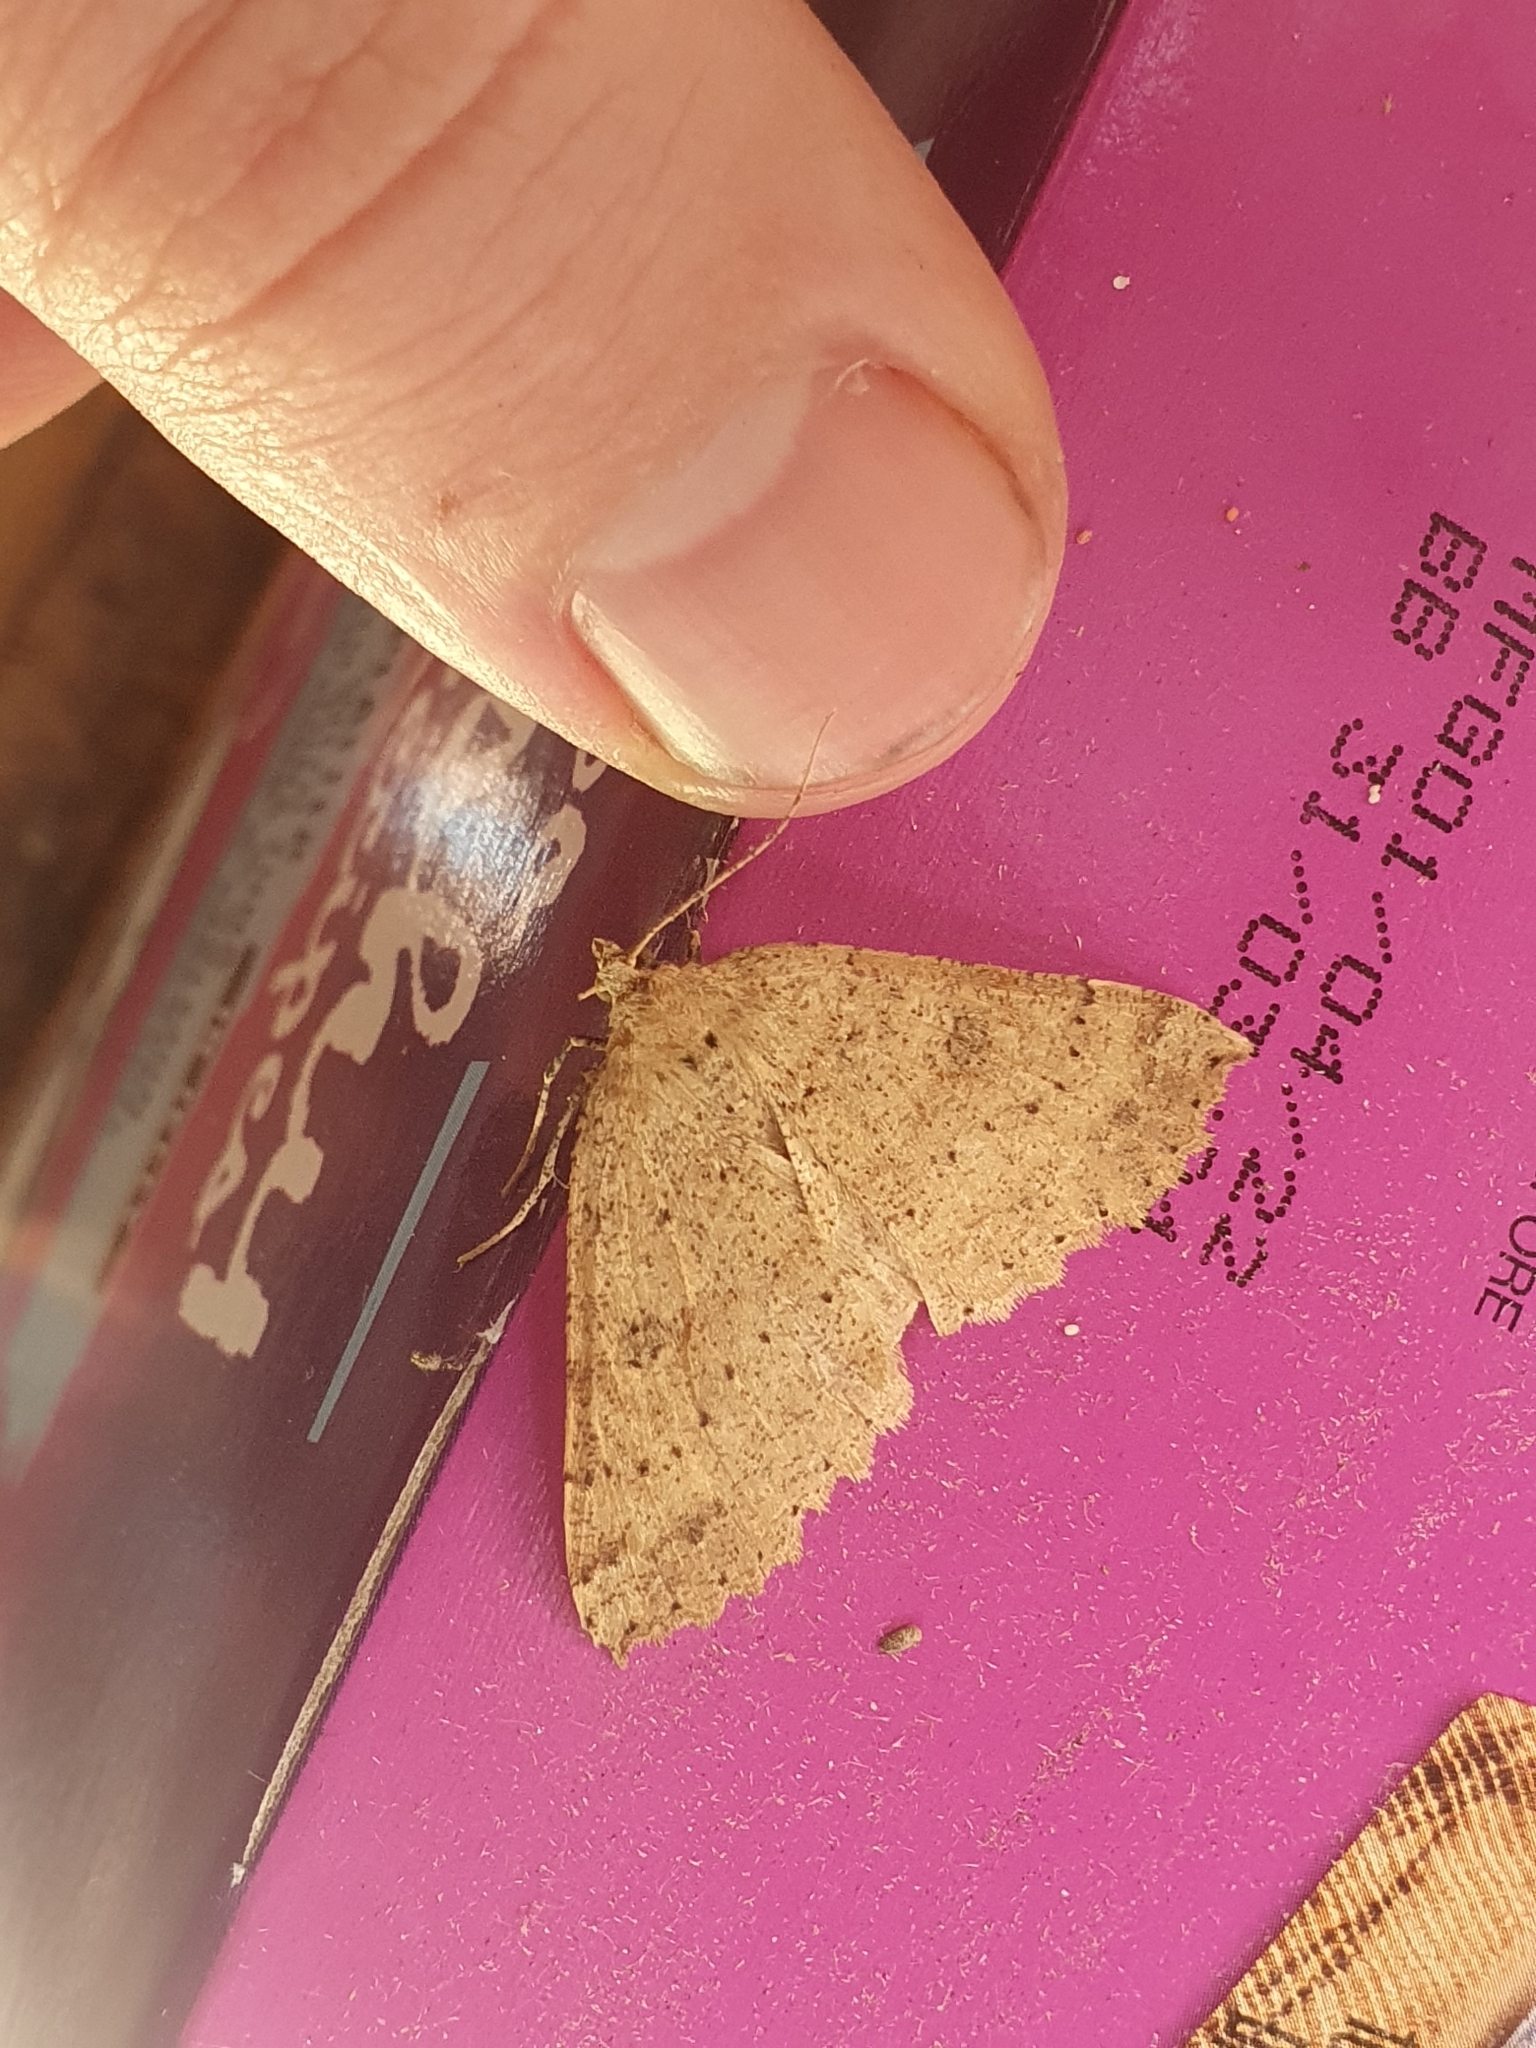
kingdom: Animalia
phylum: Arthropoda
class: Insecta
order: Lepidoptera
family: Geometridae
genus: Cleora
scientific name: Cleora scriptaria
